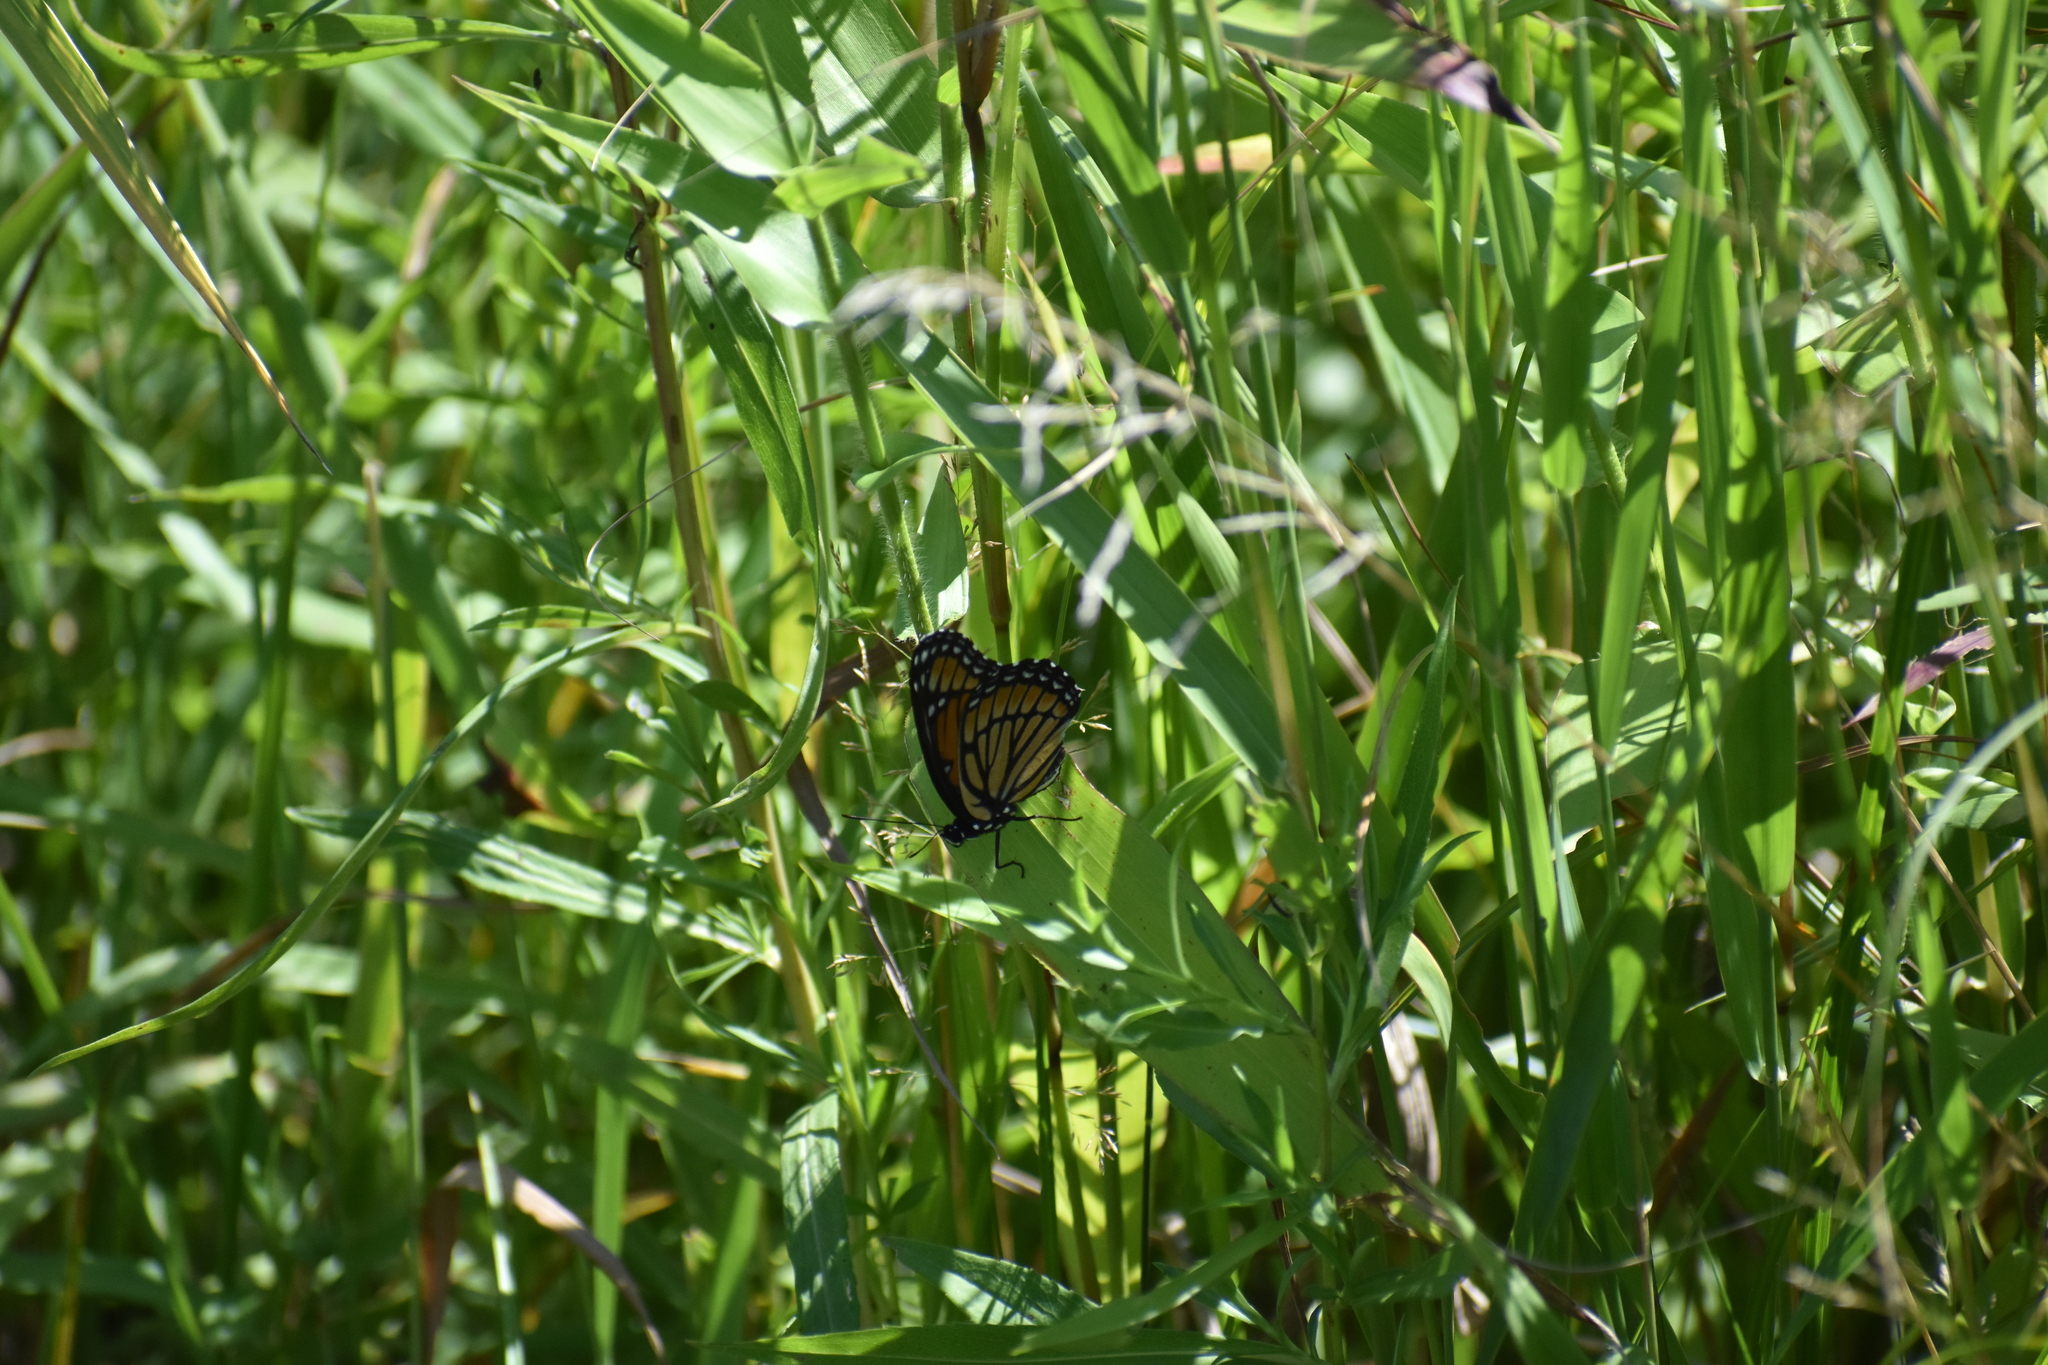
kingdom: Animalia
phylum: Arthropoda
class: Insecta
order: Lepidoptera
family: Nymphalidae
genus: Limenitis
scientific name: Limenitis archippus
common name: Viceroy
